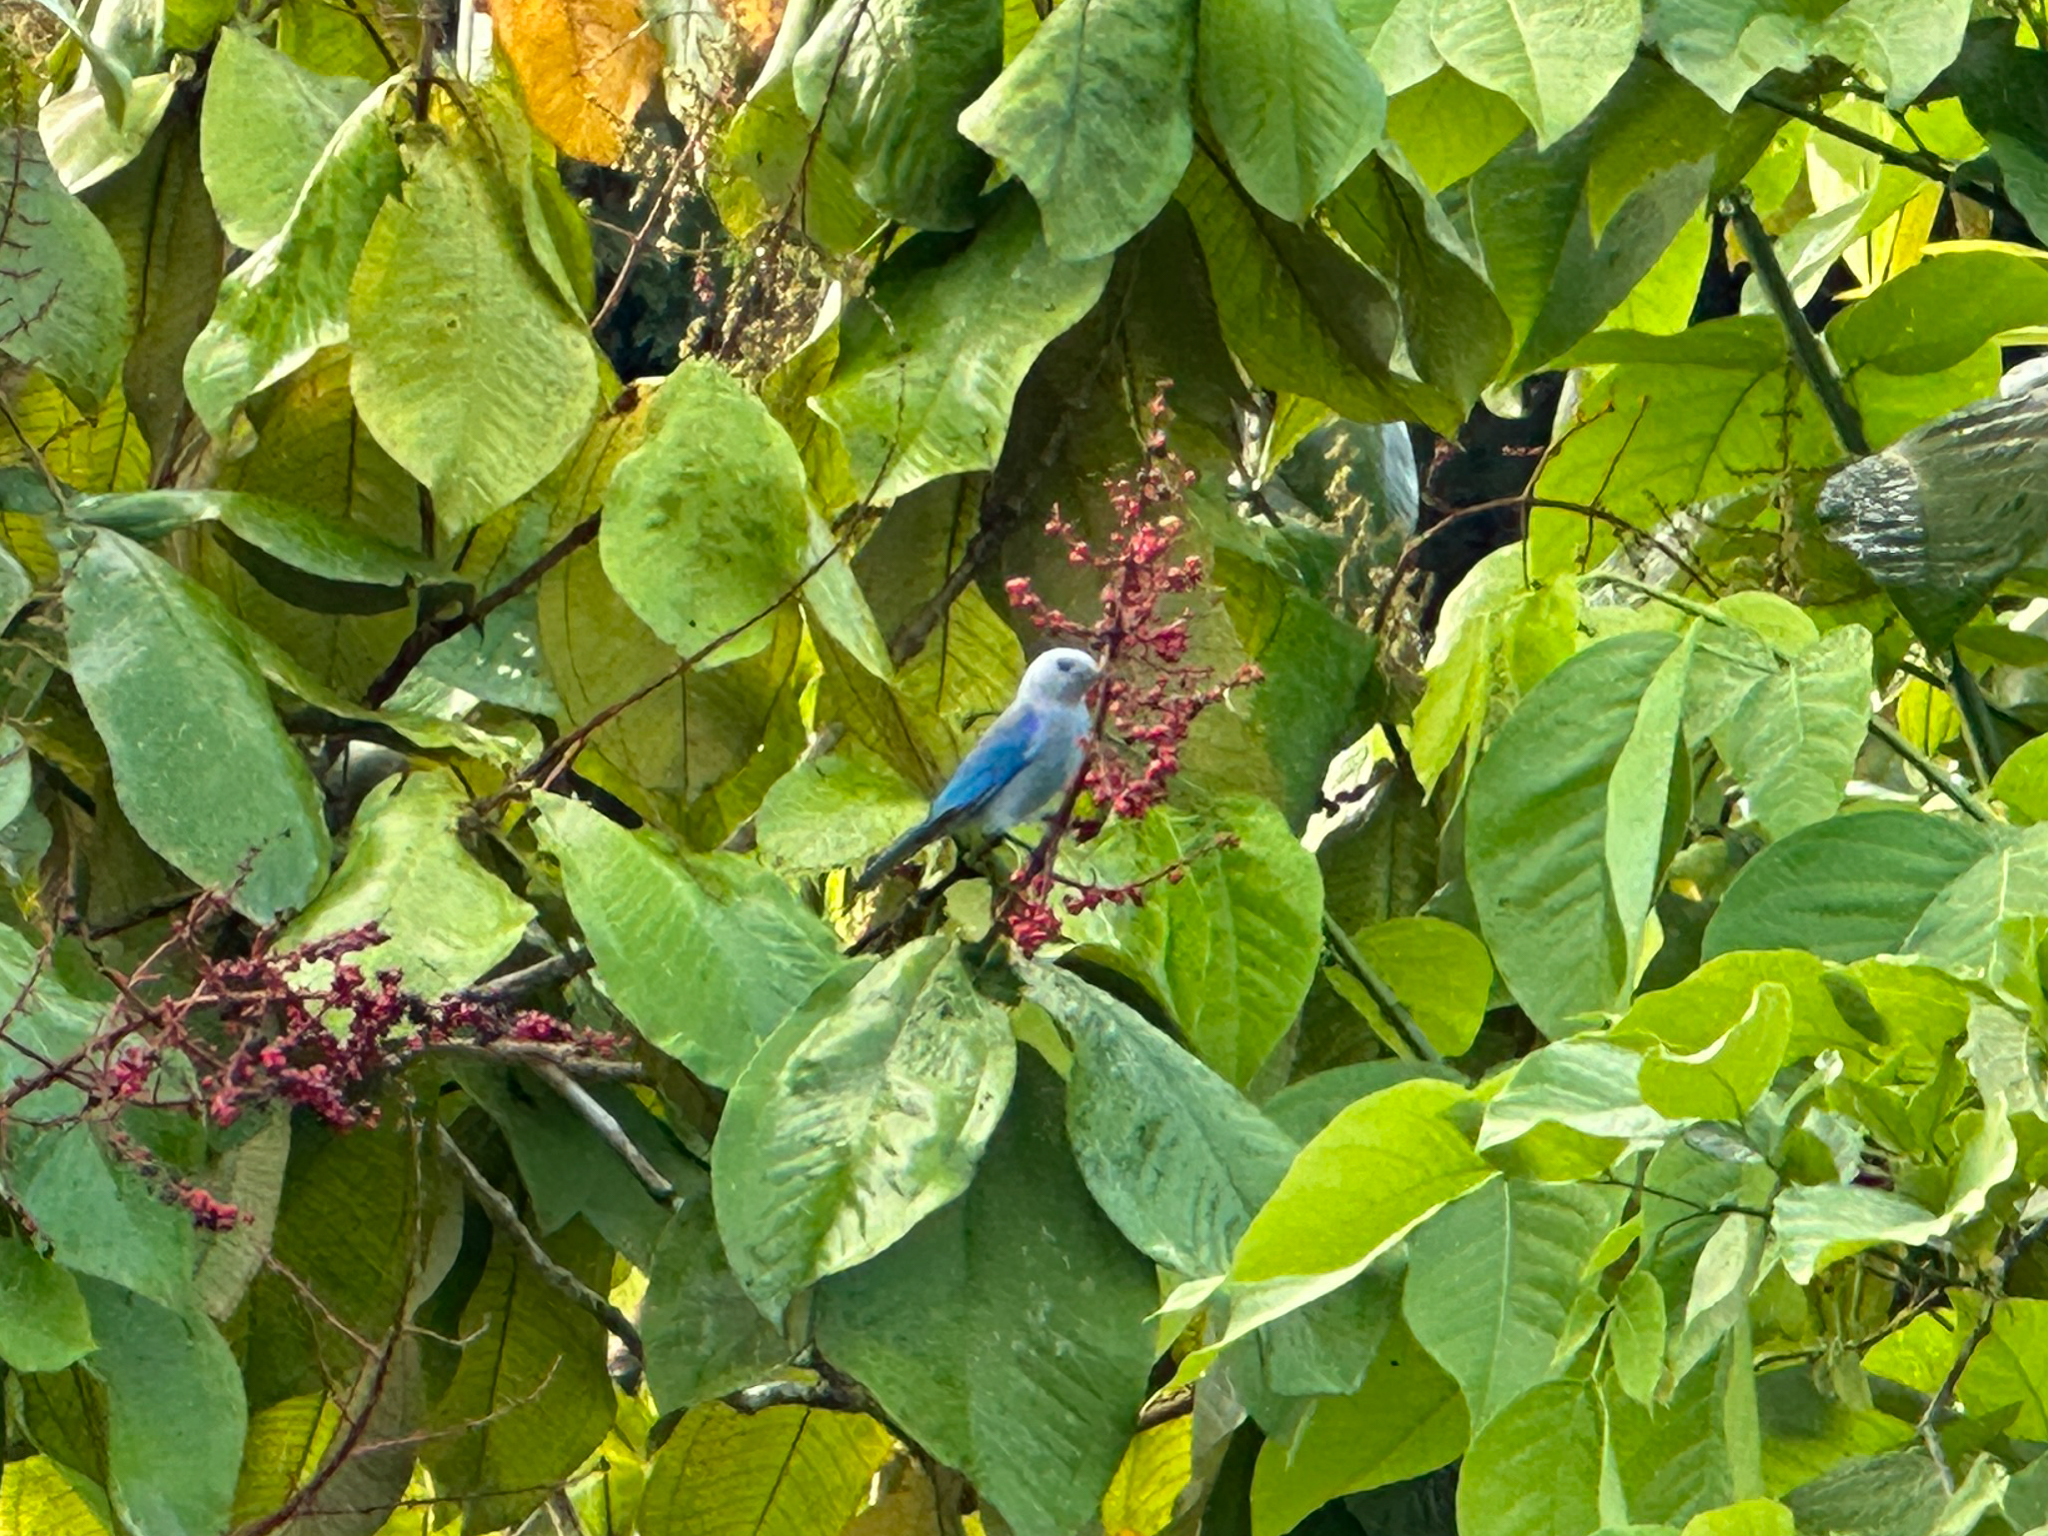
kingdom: Animalia
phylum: Chordata
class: Aves
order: Passeriformes
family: Thraupidae
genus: Thraupis
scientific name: Thraupis episcopus
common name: Blue-grey tanager
